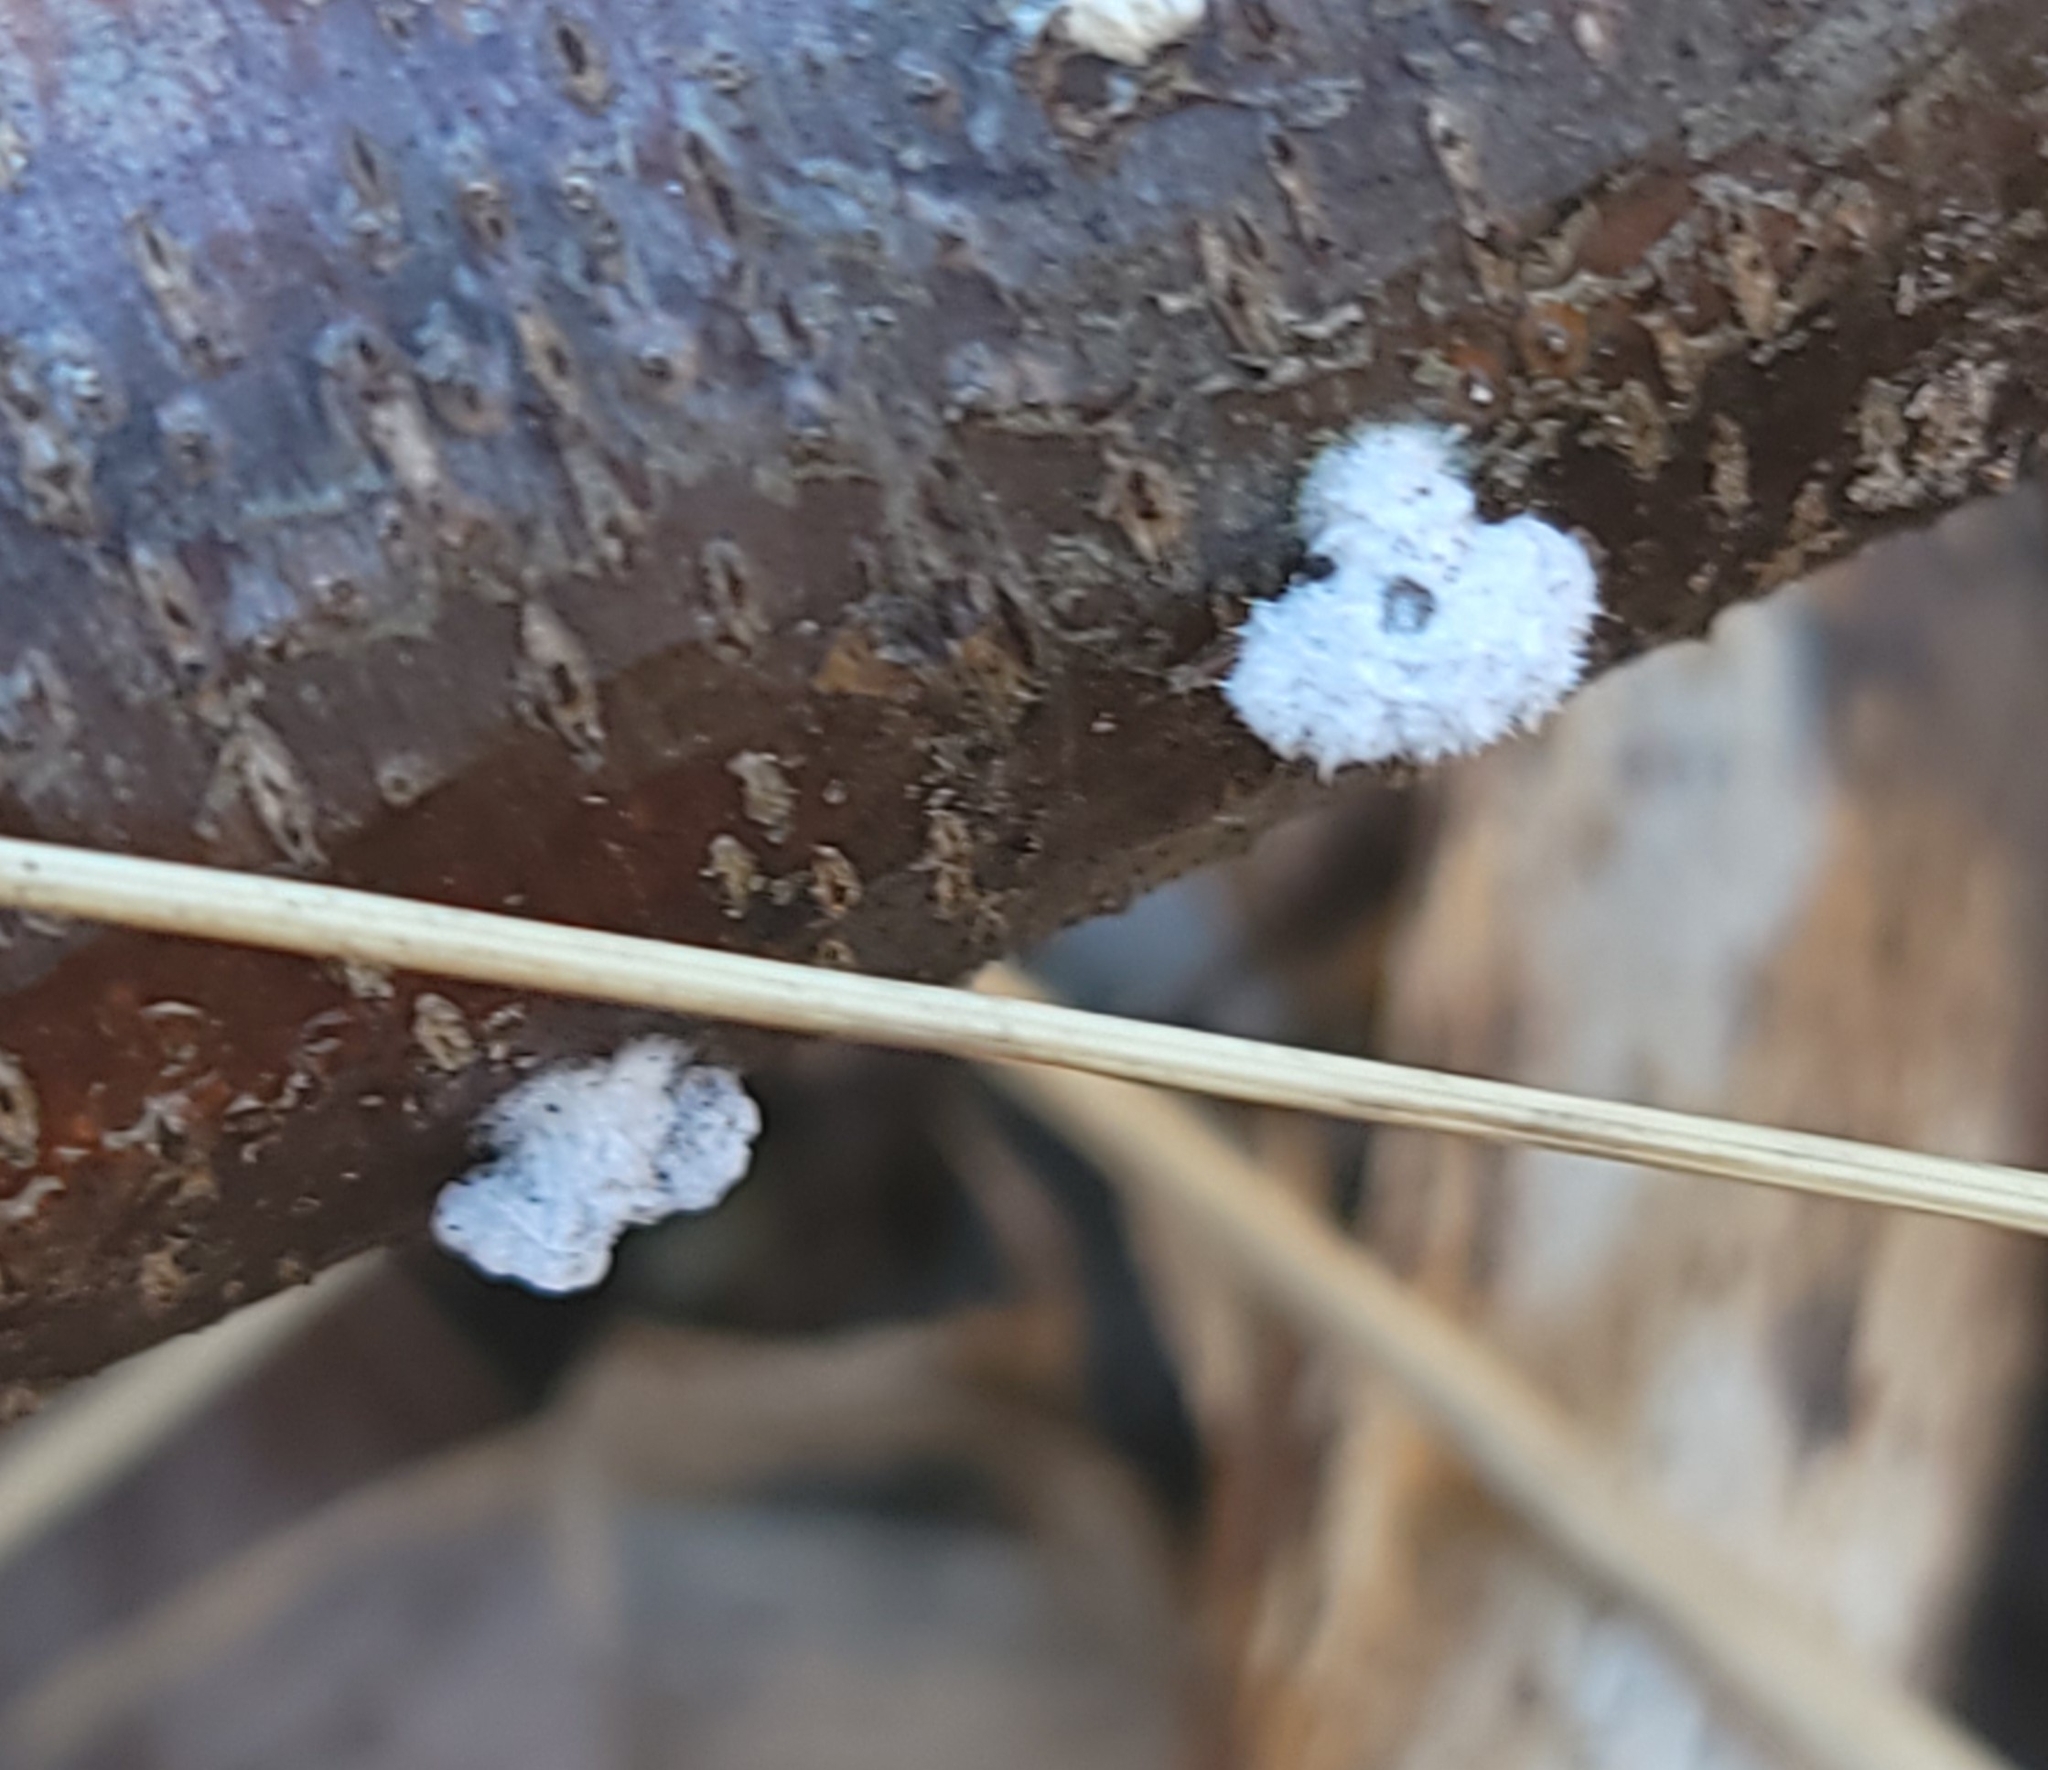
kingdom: Fungi
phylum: Basidiomycota
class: Agaricomycetes
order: Agaricales
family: Schizophyllaceae
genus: Schizophyllum
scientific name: Schizophyllum commune
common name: Common porecrust
